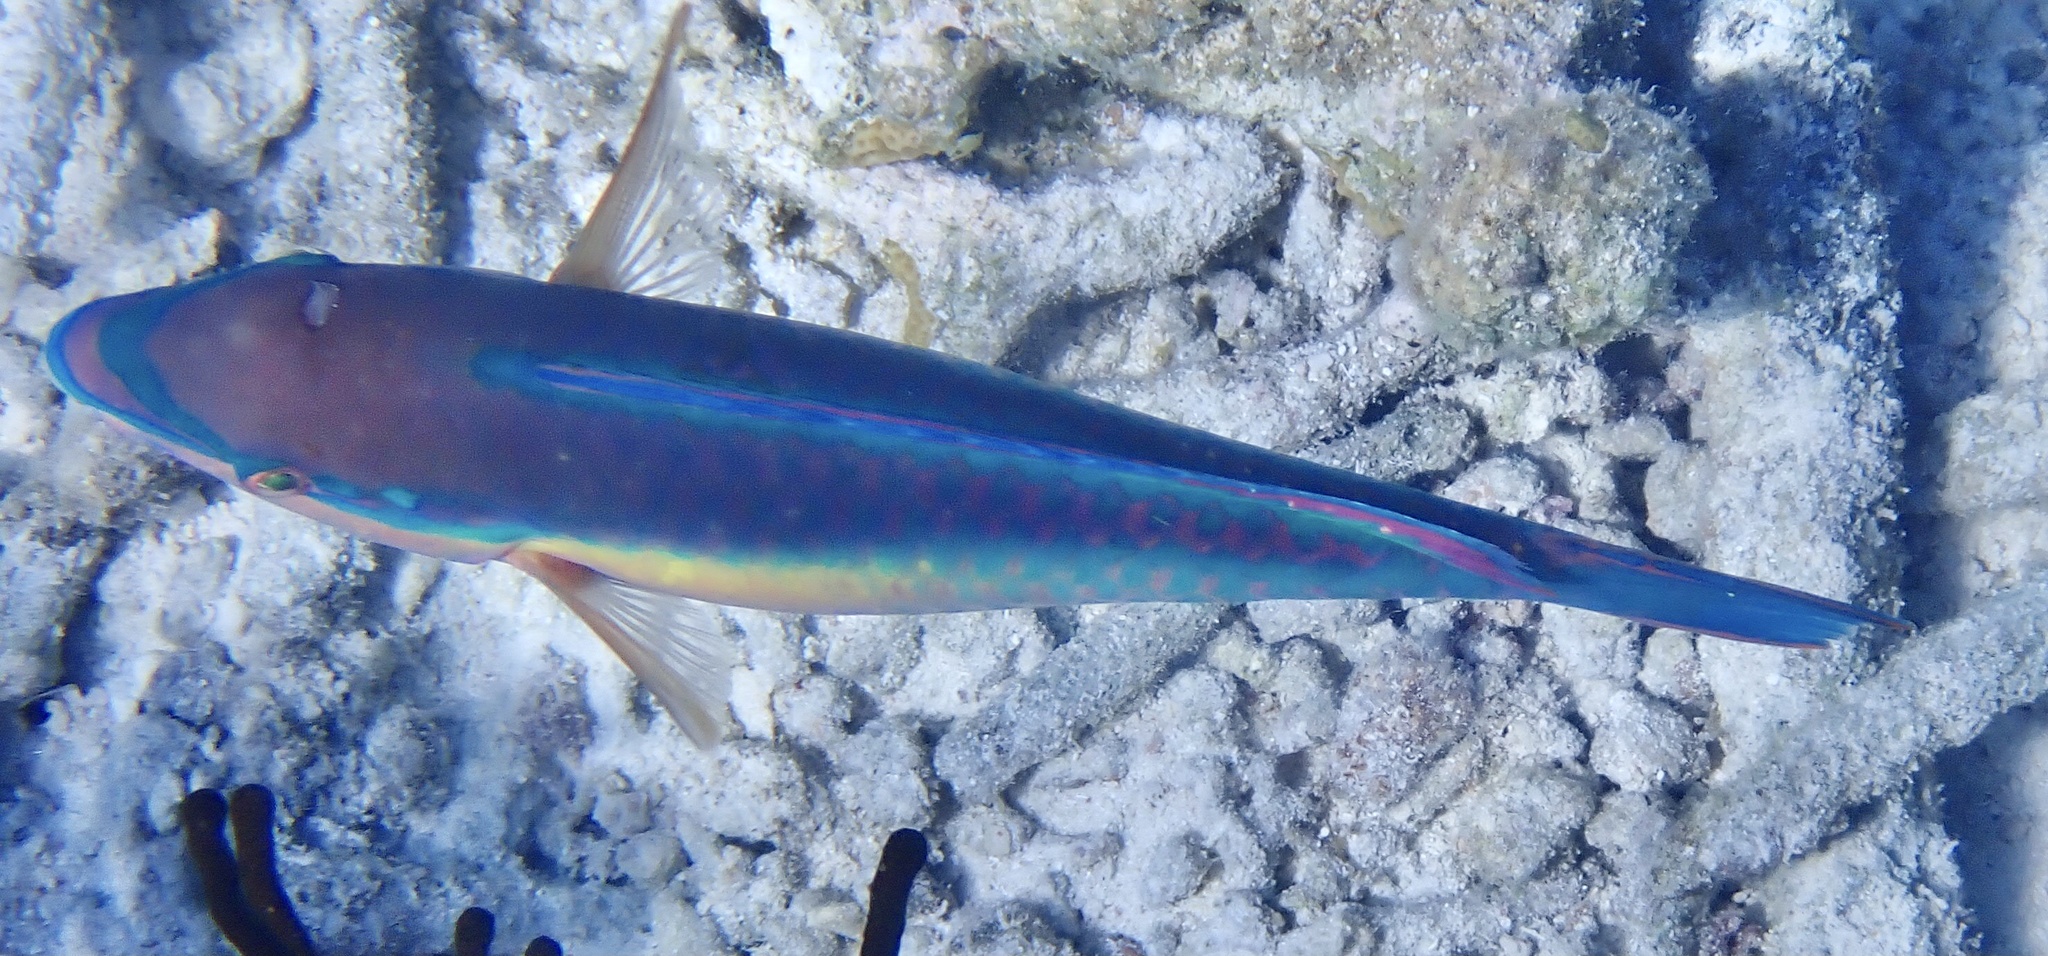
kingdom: Animalia
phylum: Chordata
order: Perciformes
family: Scaridae
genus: Scarus
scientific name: Scarus taeniopterus
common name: Princess parrotfish
